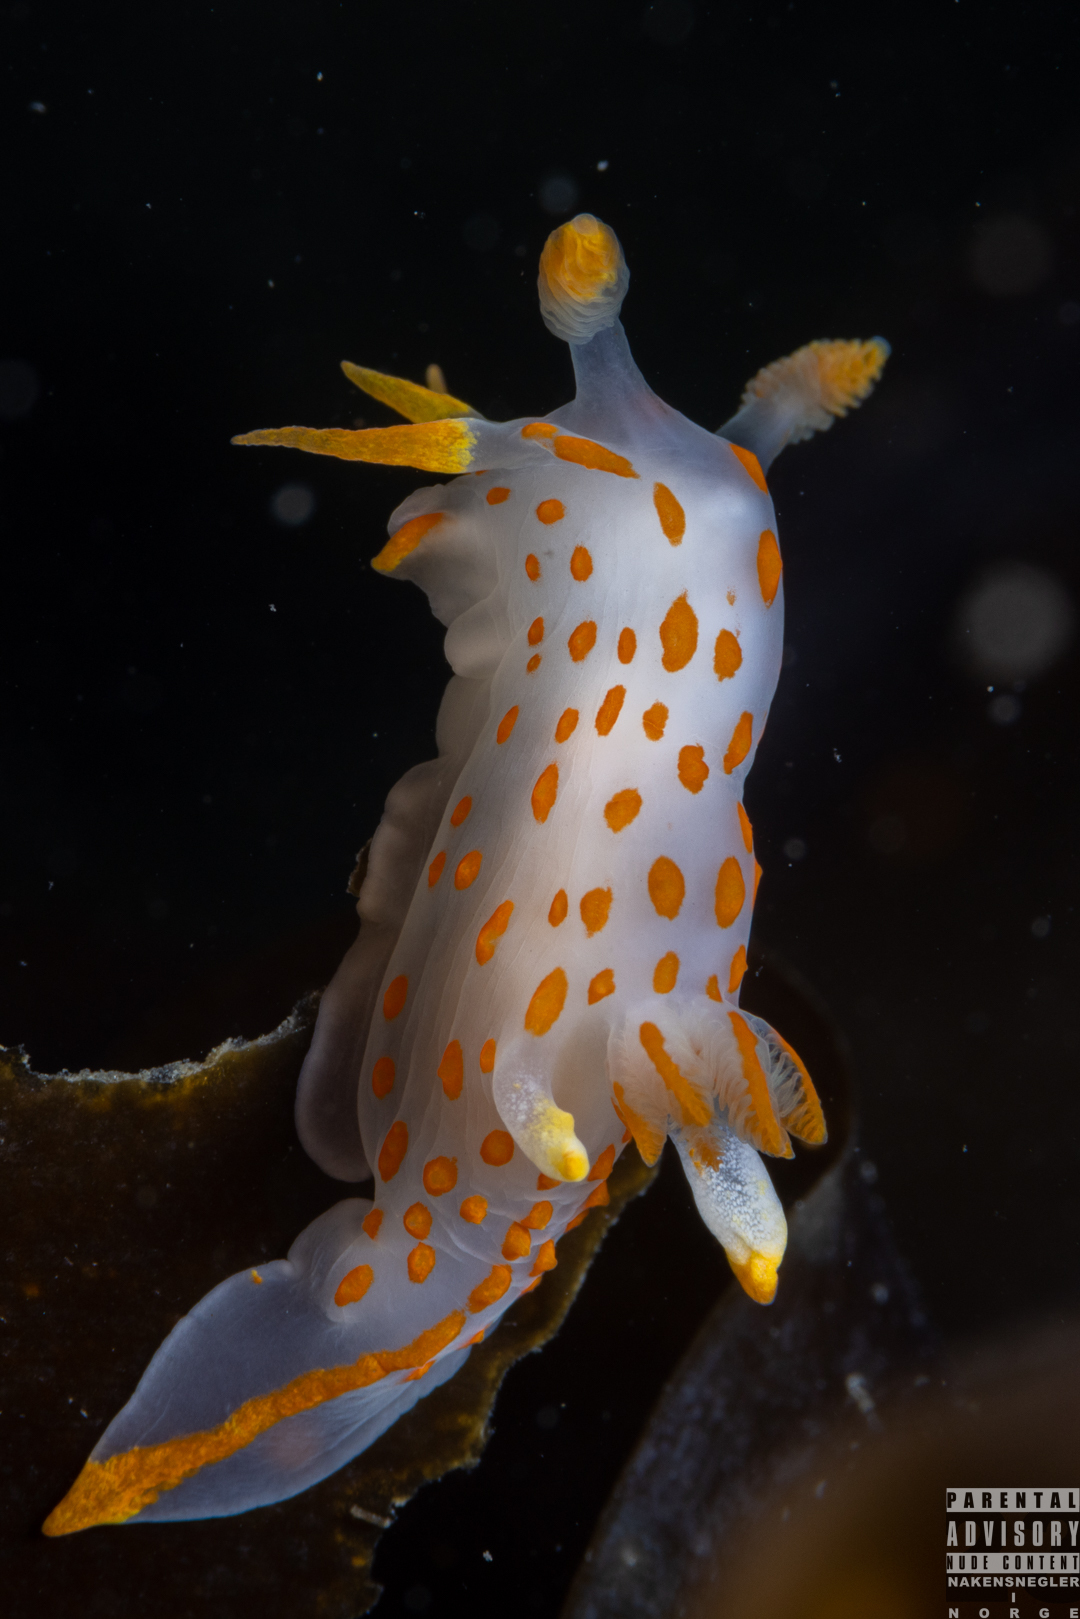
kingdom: Animalia
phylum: Mollusca
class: Gastropoda
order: Nudibranchia
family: Polyceridae
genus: Polycera
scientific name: Polycera quadrilineata
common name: Four-striped polycera
